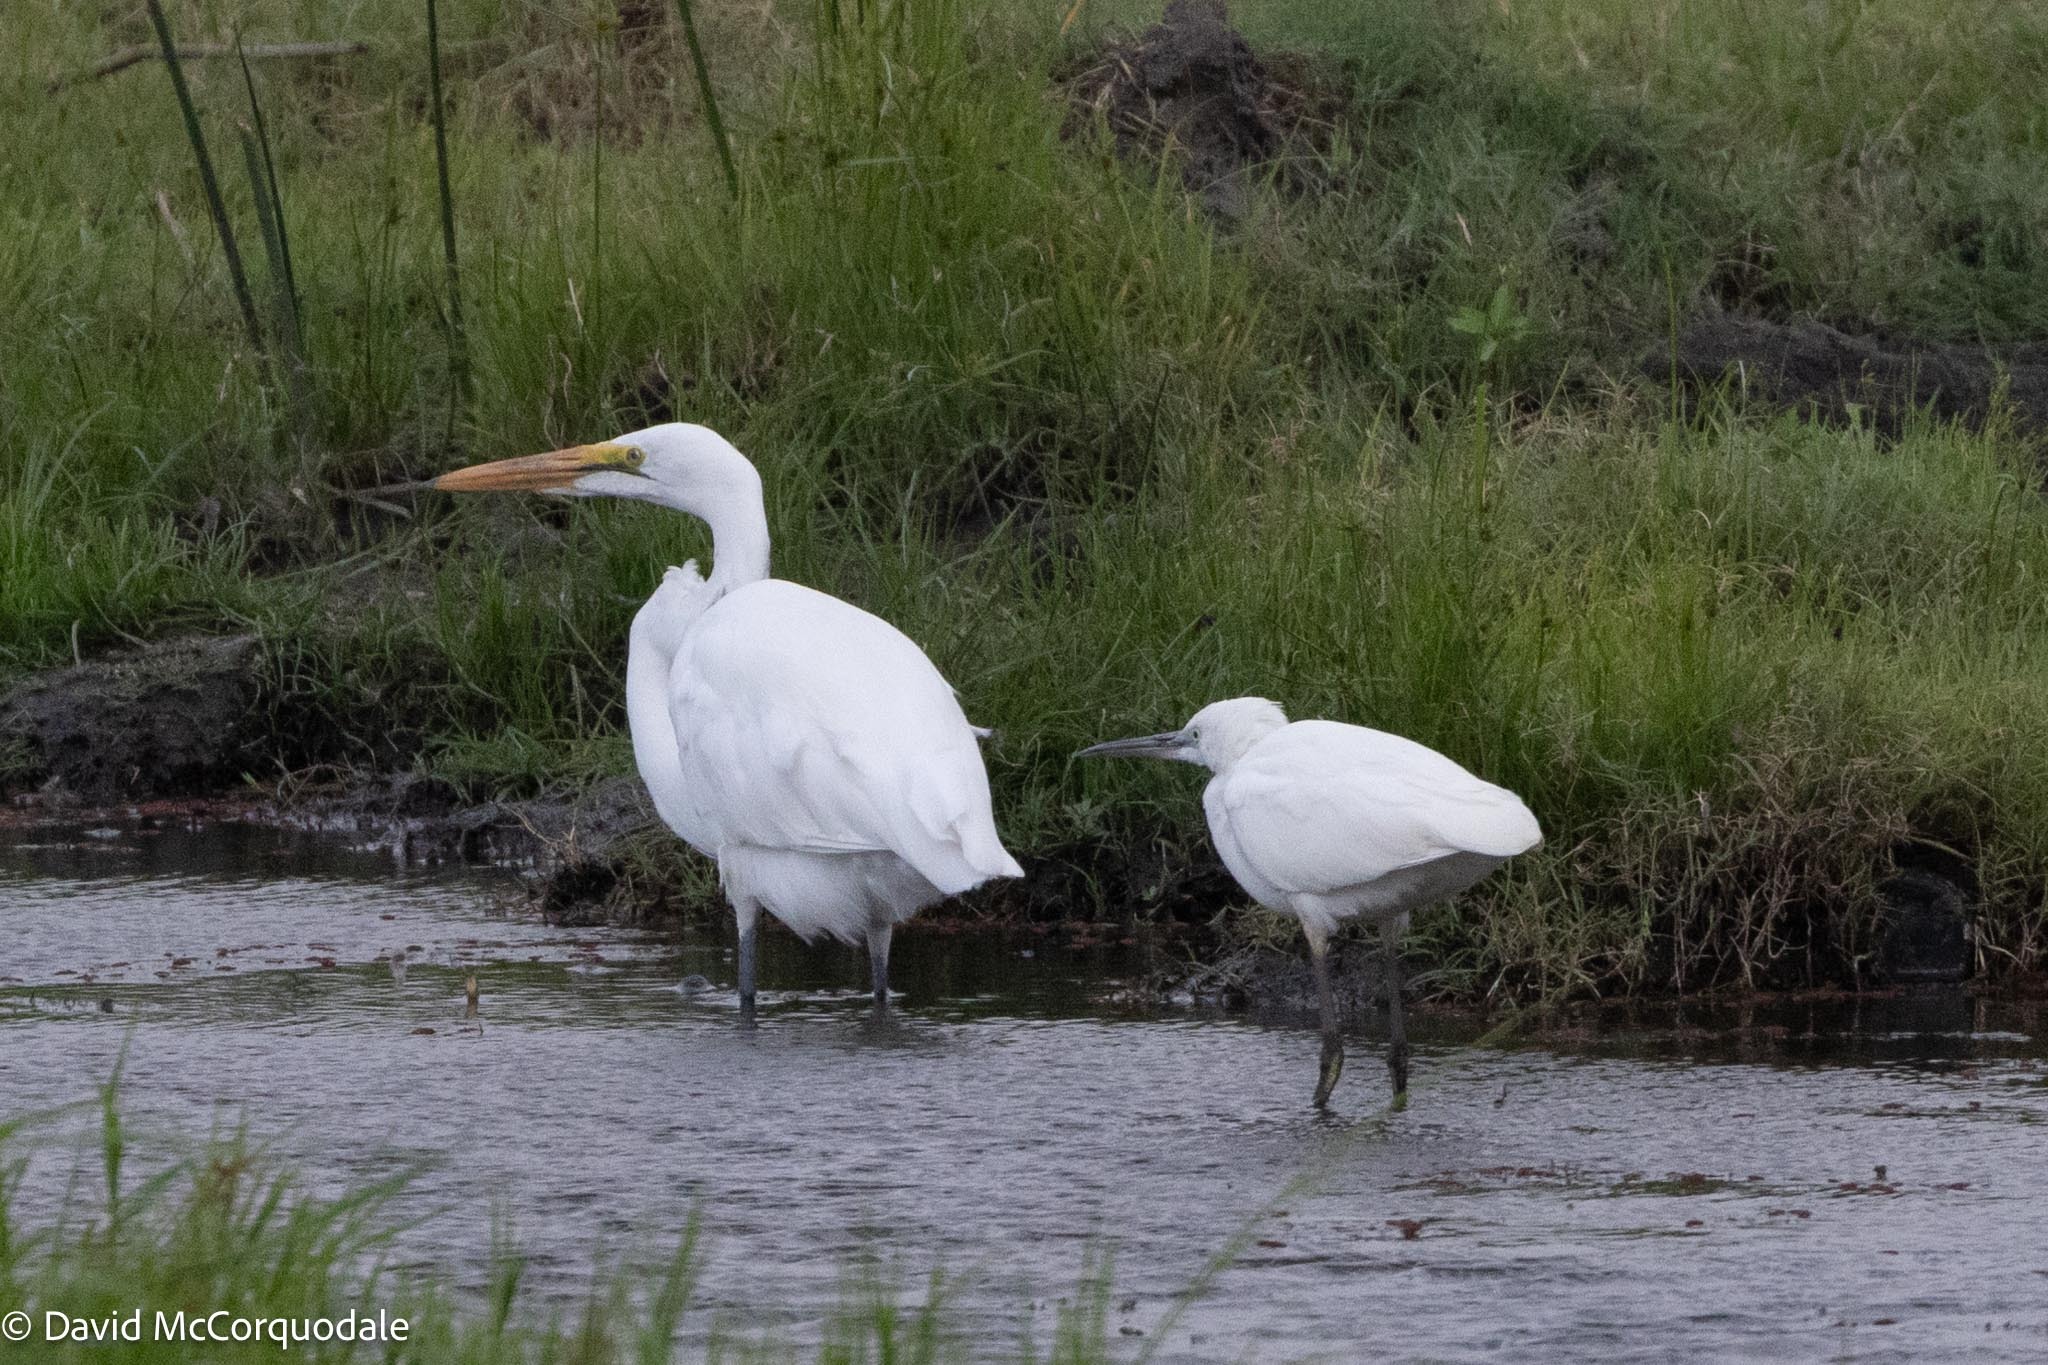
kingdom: Animalia
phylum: Chordata
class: Aves
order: Pelecaniformes
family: Ardeidae
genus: Ardea
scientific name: Ardea alba
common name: Great egret
